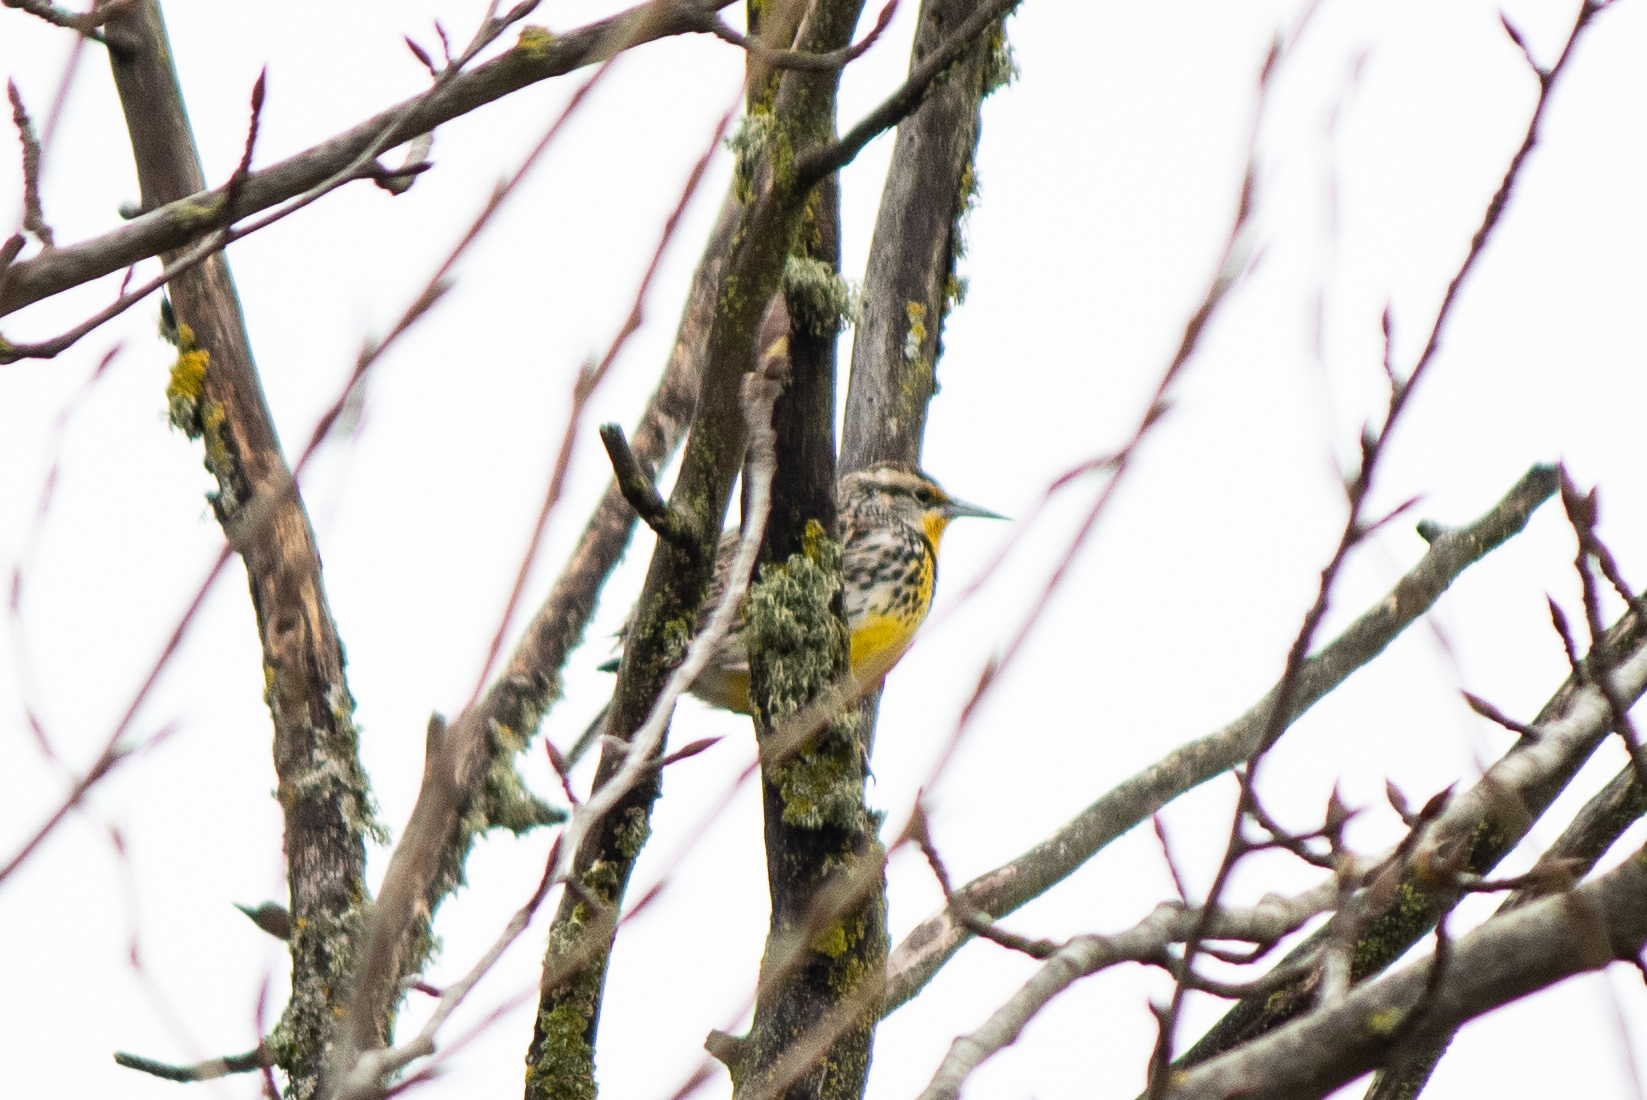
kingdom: Animalia
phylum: Chordata
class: Aves
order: Passeriformes
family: Icteridae
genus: Sturnella
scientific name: Sturnella neglecta
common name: Western meadowlark
